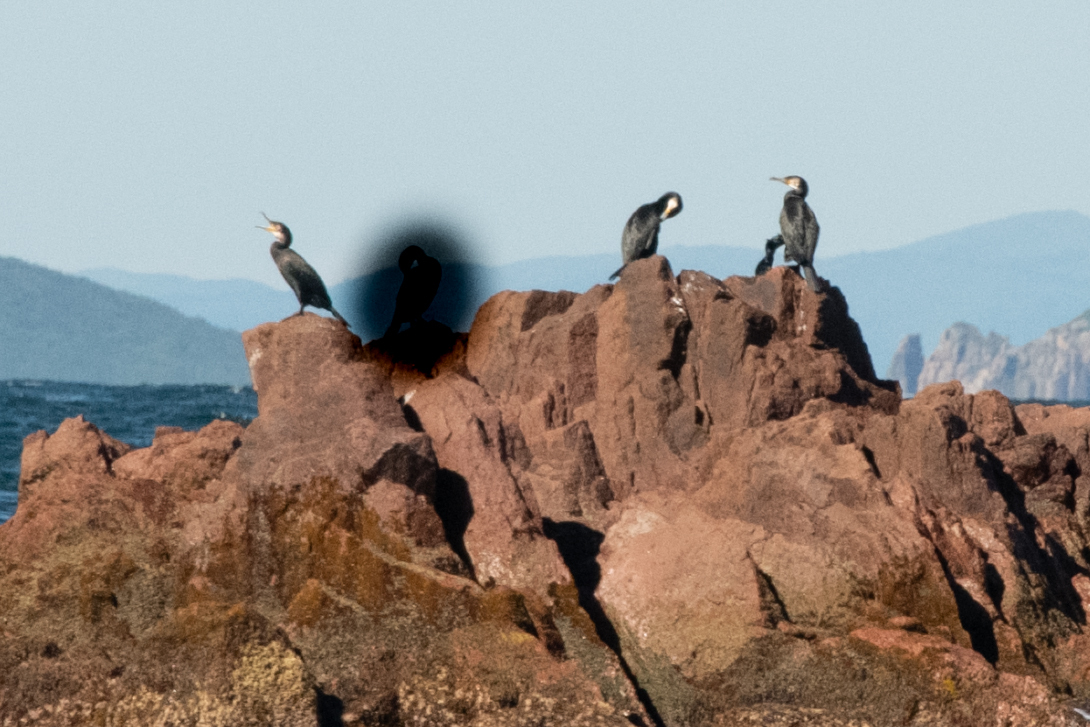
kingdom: Animalia
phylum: Chordata
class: Aves
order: Suliformes
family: Phalacrocoracidae
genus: Phalacrocorax
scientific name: Phalacrocorax capillatus
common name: Japanese cormorant
